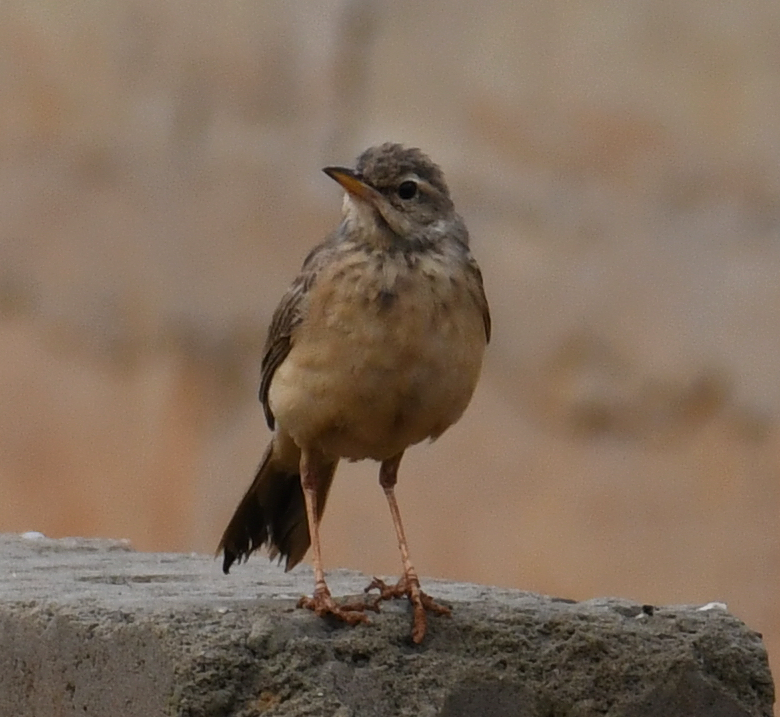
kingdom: Animalia
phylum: Chordata
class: Aves
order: Passeriformes
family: Motacillidae
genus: Anthus
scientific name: Anthus leucophrys
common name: Plain-backed pipit
